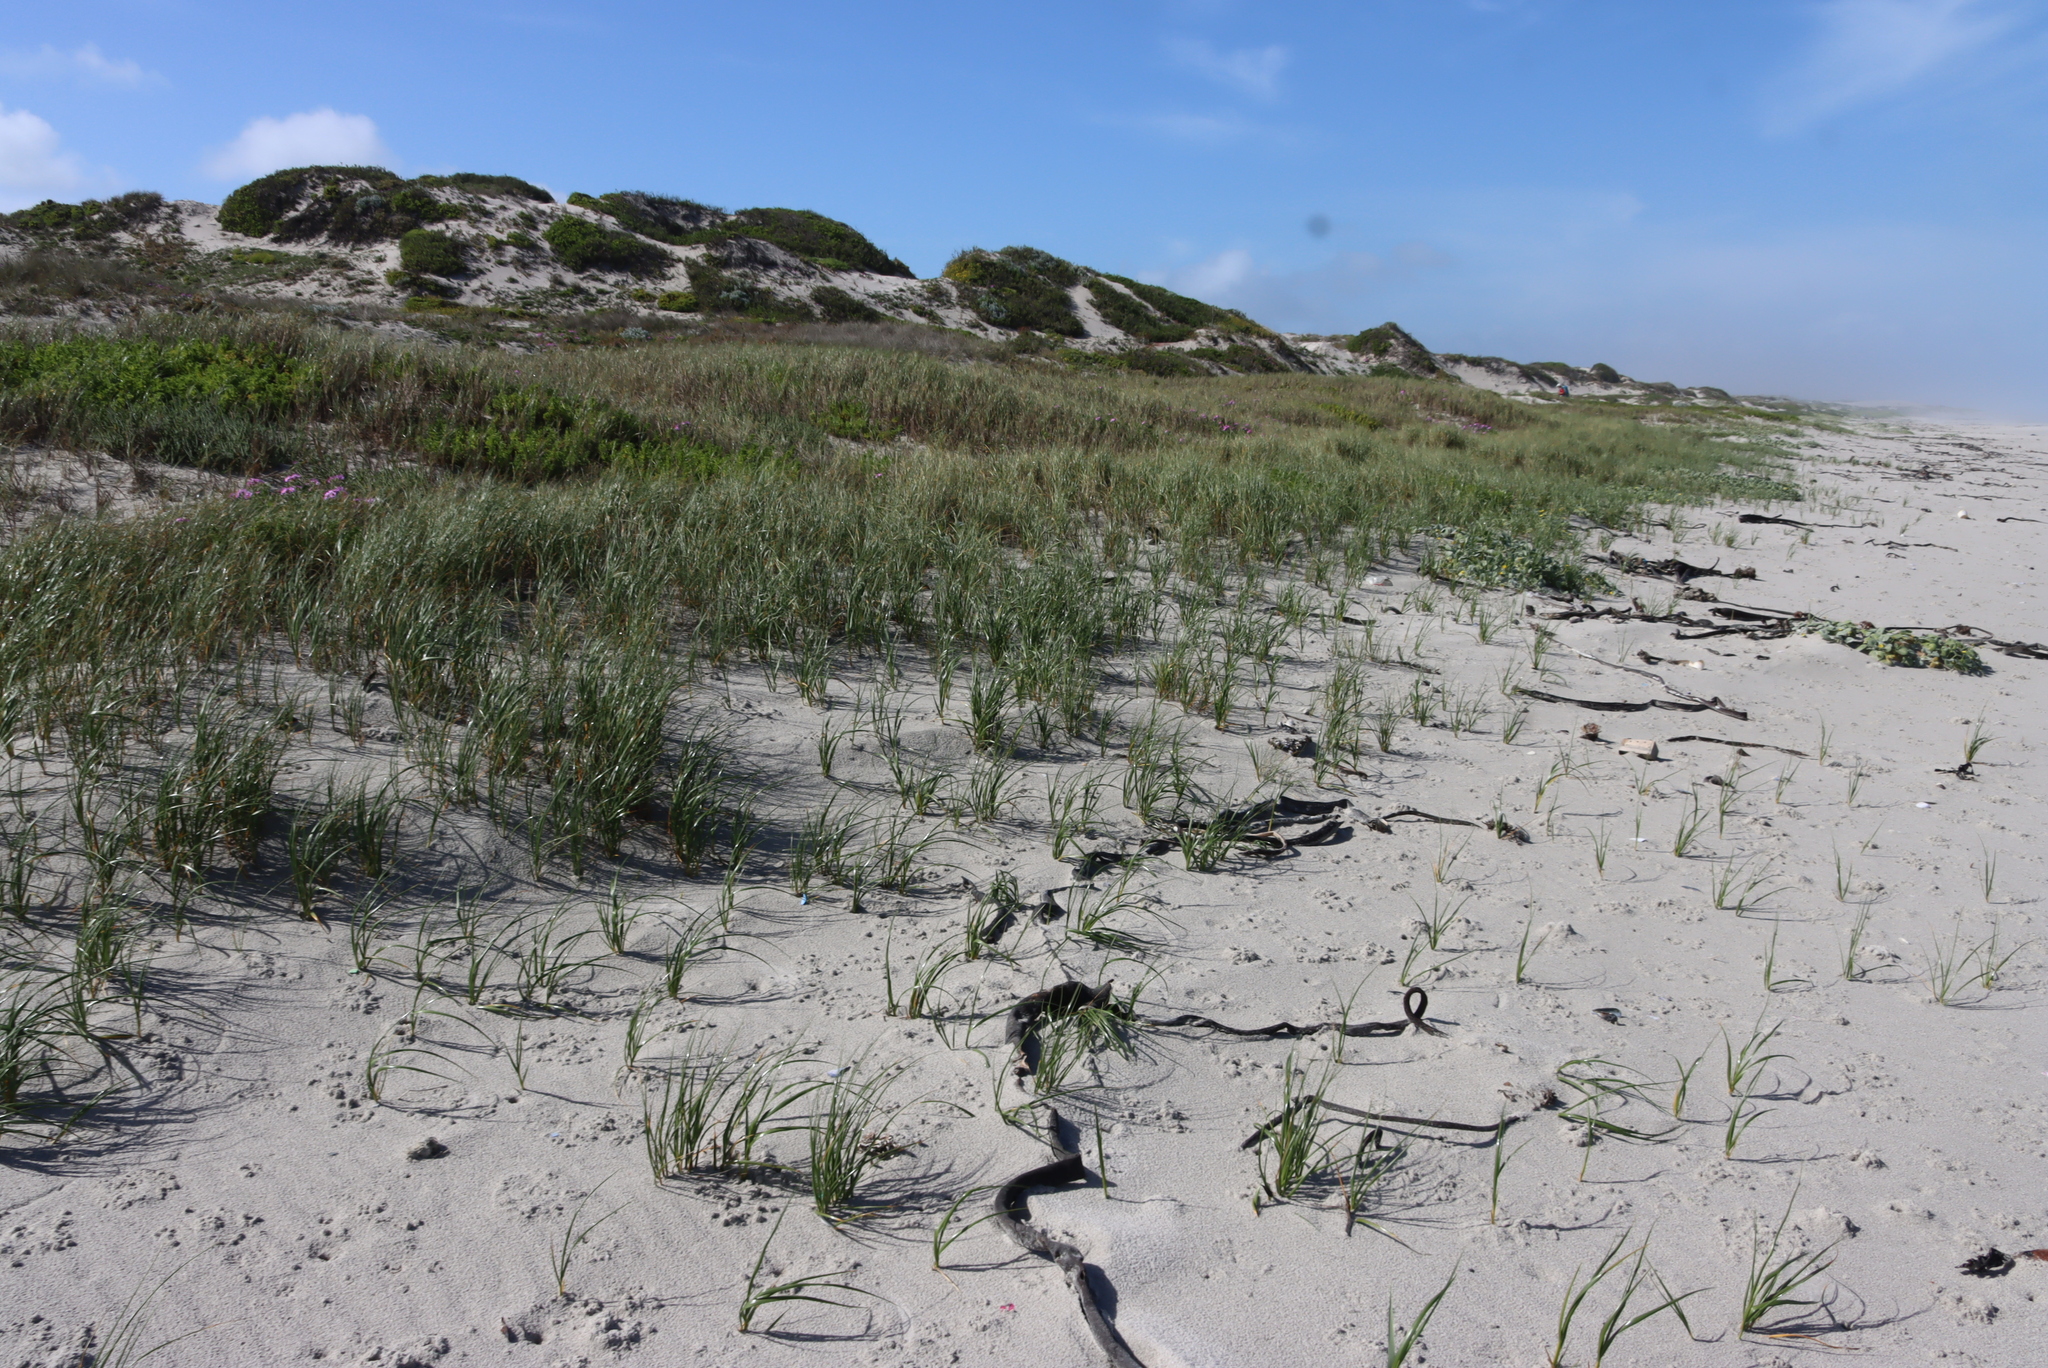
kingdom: Plantae
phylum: Tracheophyta
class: Liliopsida
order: Poales
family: Poaceae
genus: Thinopyrum
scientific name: Thinopyrum distichum
